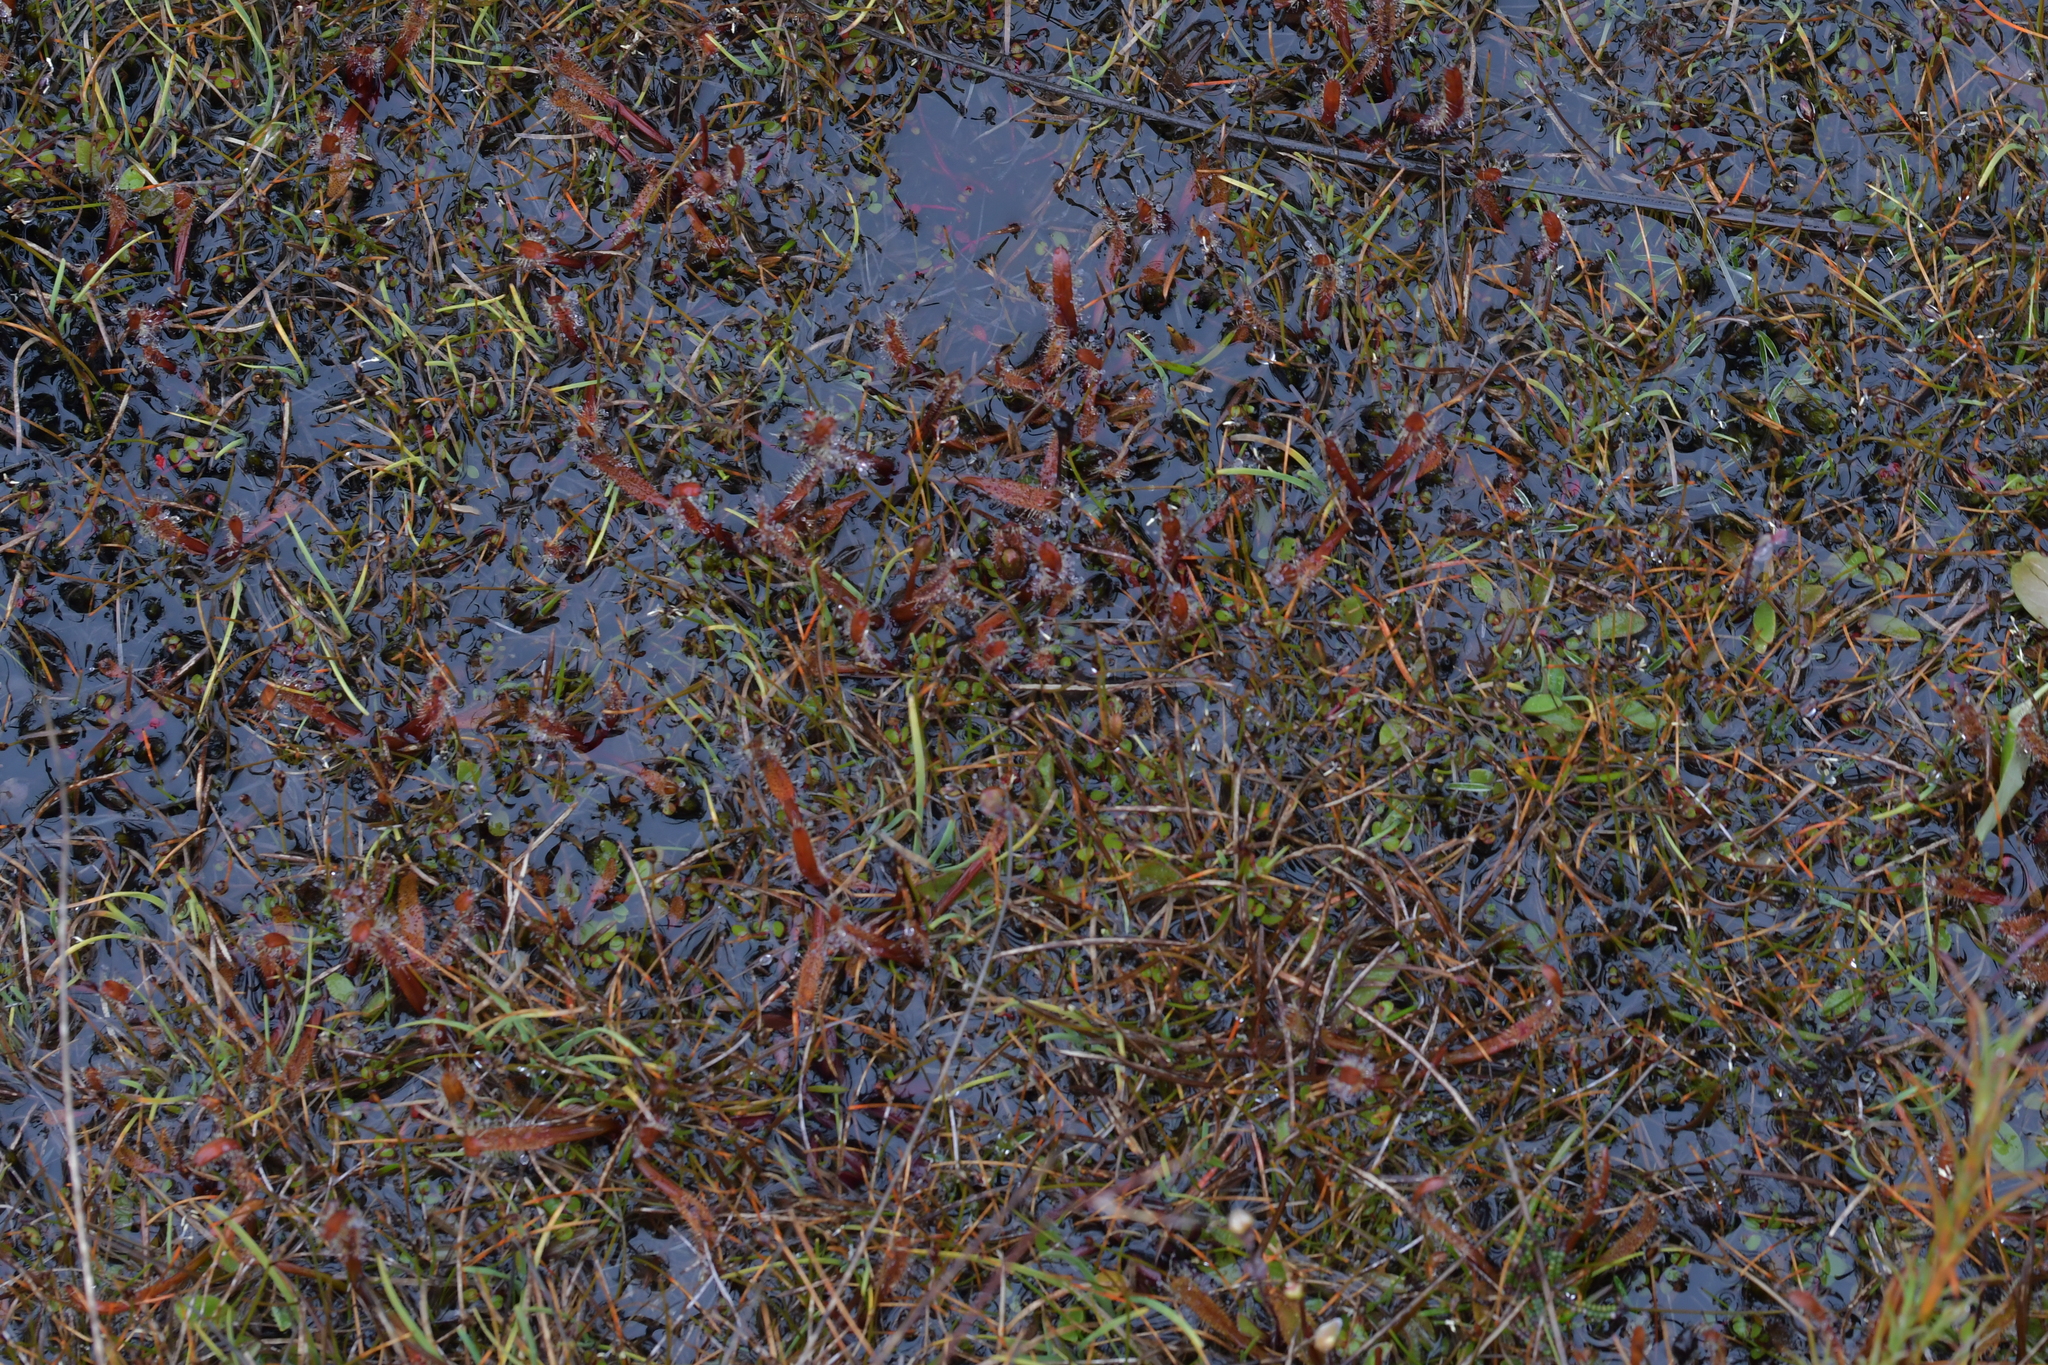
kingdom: Plantae
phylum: Tracheophyta
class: Magnoliopsida
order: Caryophyllales
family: Droseraceae
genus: Drosera
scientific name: Drosera arcturi
